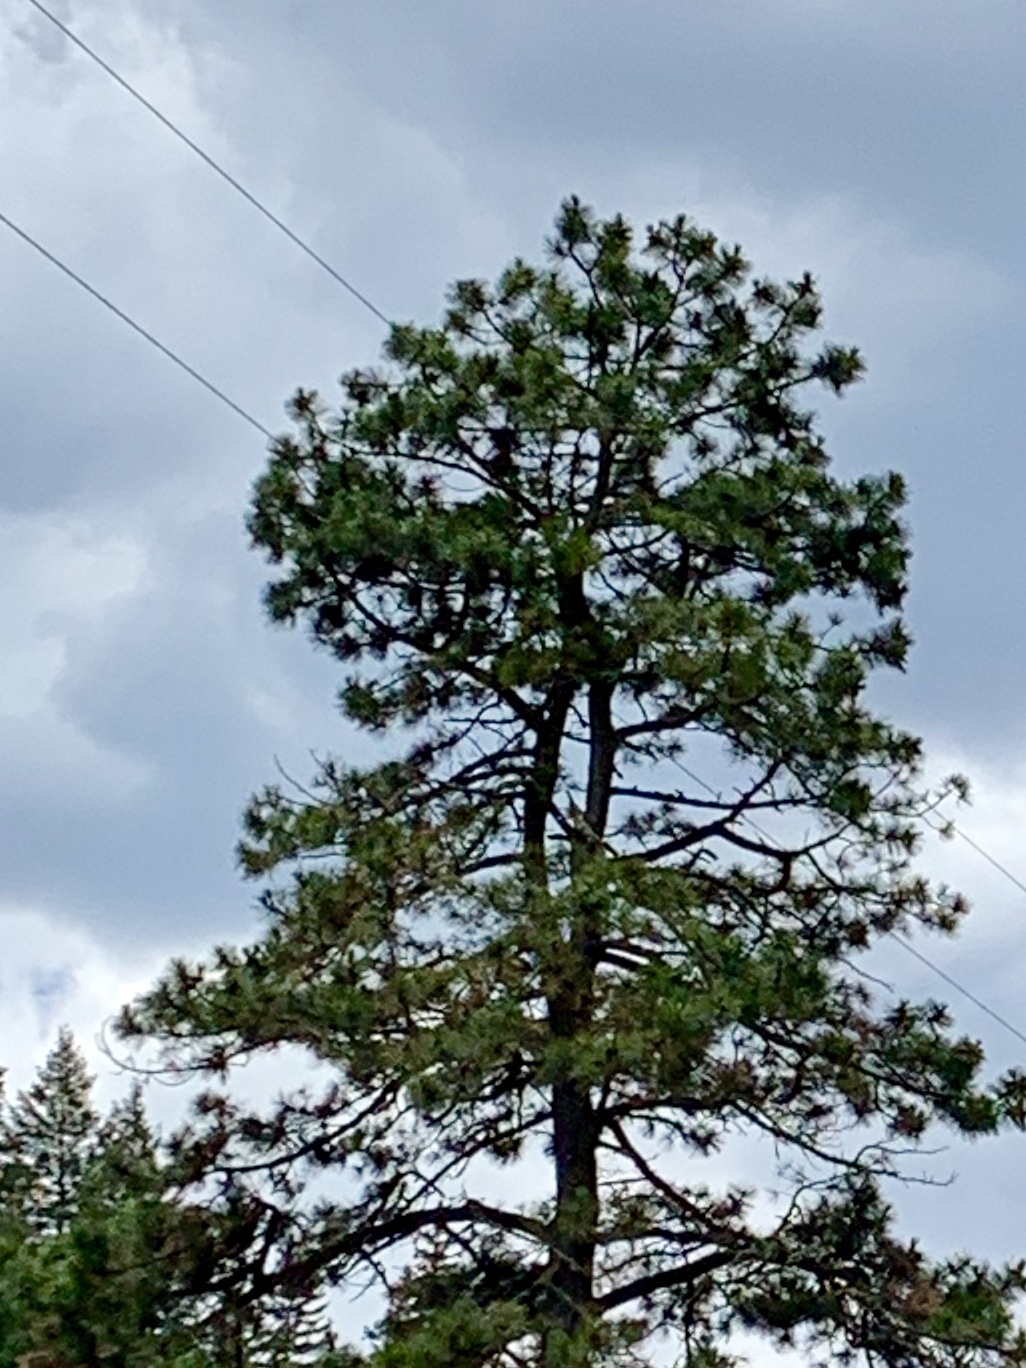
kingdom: Plantae
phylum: Tracheophyta
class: Pinopsida
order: Pinales
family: Pinaceae
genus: Pinus
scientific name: Pinus ponderosa
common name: Western yellow-pine
